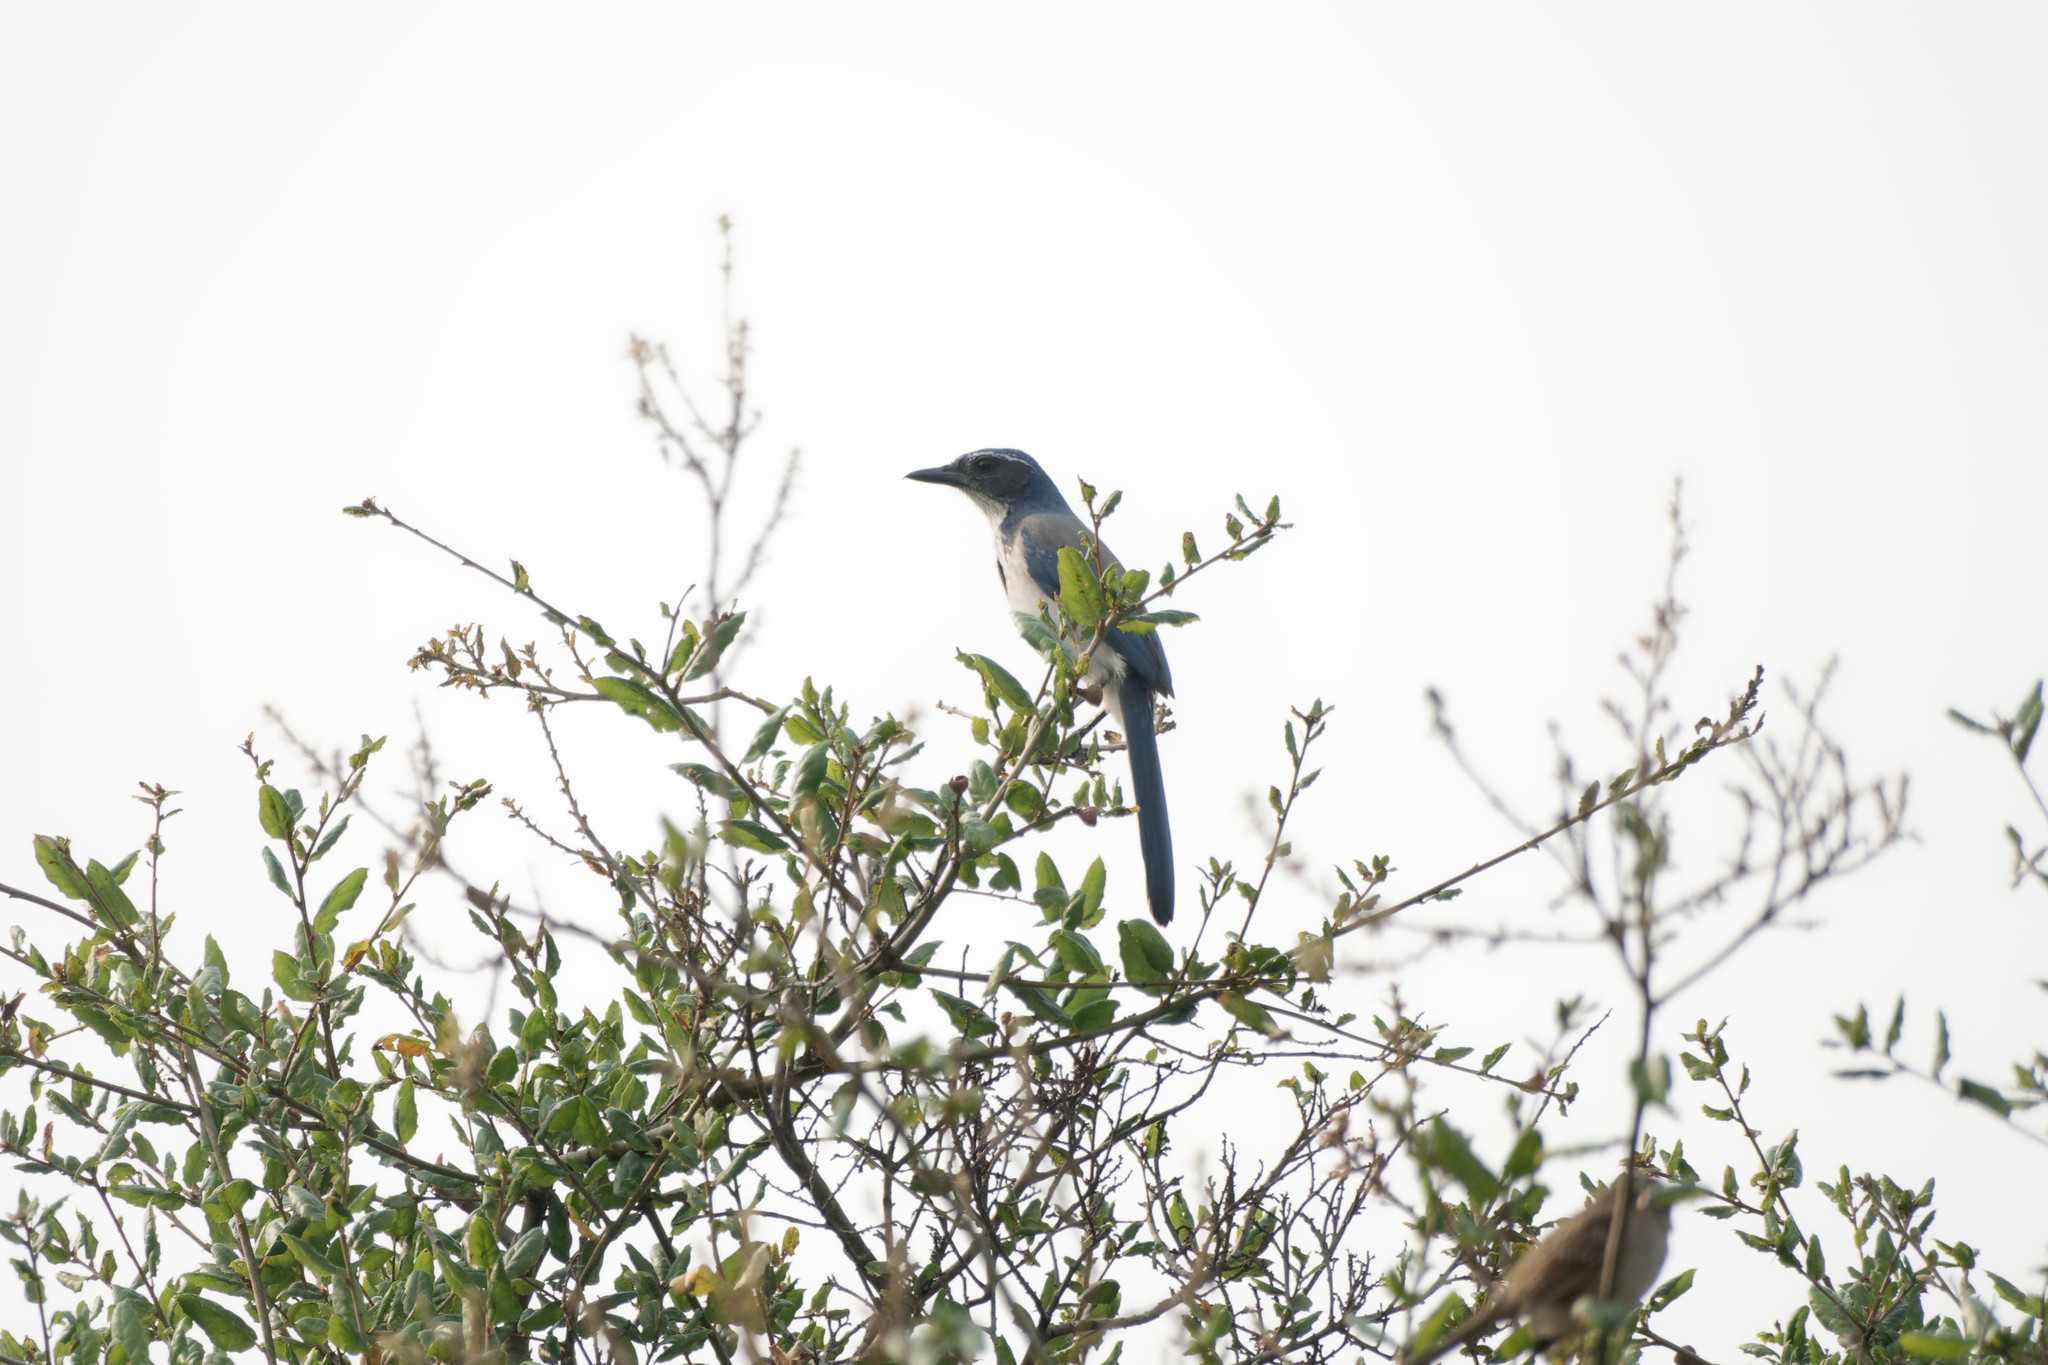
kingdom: Animalia
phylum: Chordata
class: Aves
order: Passeriformes
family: Corvidae
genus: Aphelocoma
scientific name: Aphelocoma californica
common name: California scrub-jay
